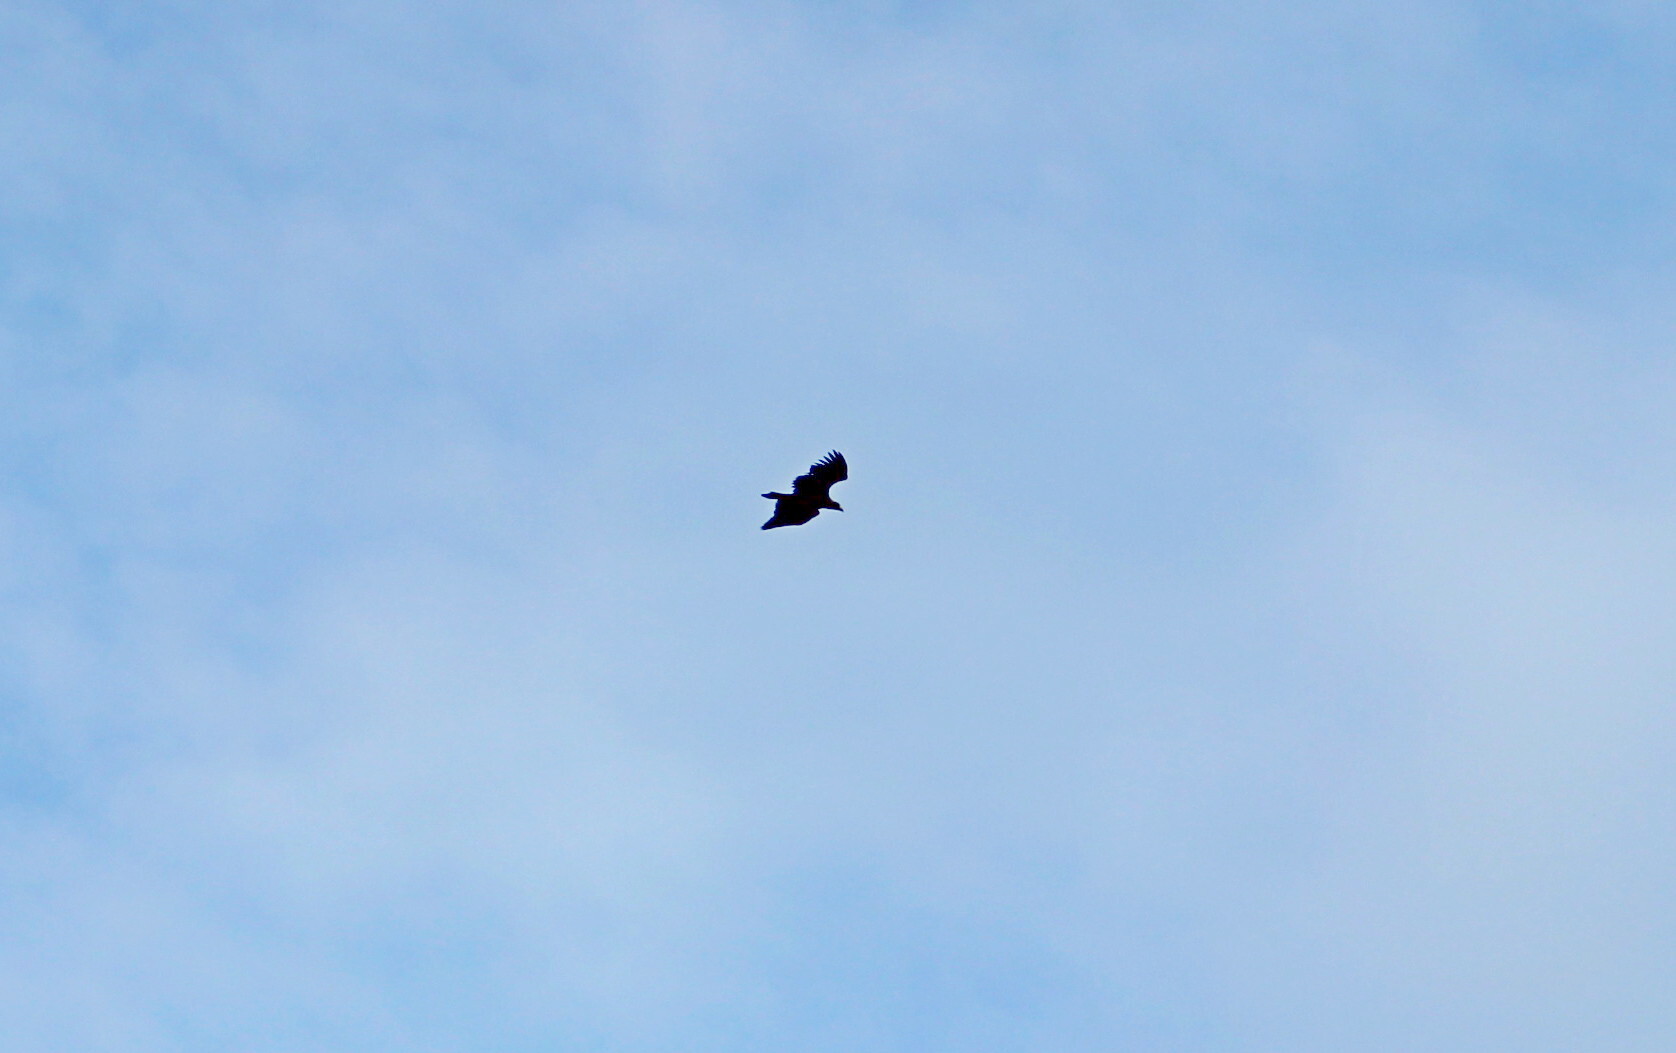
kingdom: Animalia
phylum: Chordata
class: Aves
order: Accipitriformes
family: Accipitridae
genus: Haliaeetus
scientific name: Haliaeetus albicilla
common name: White-tailed eagle
